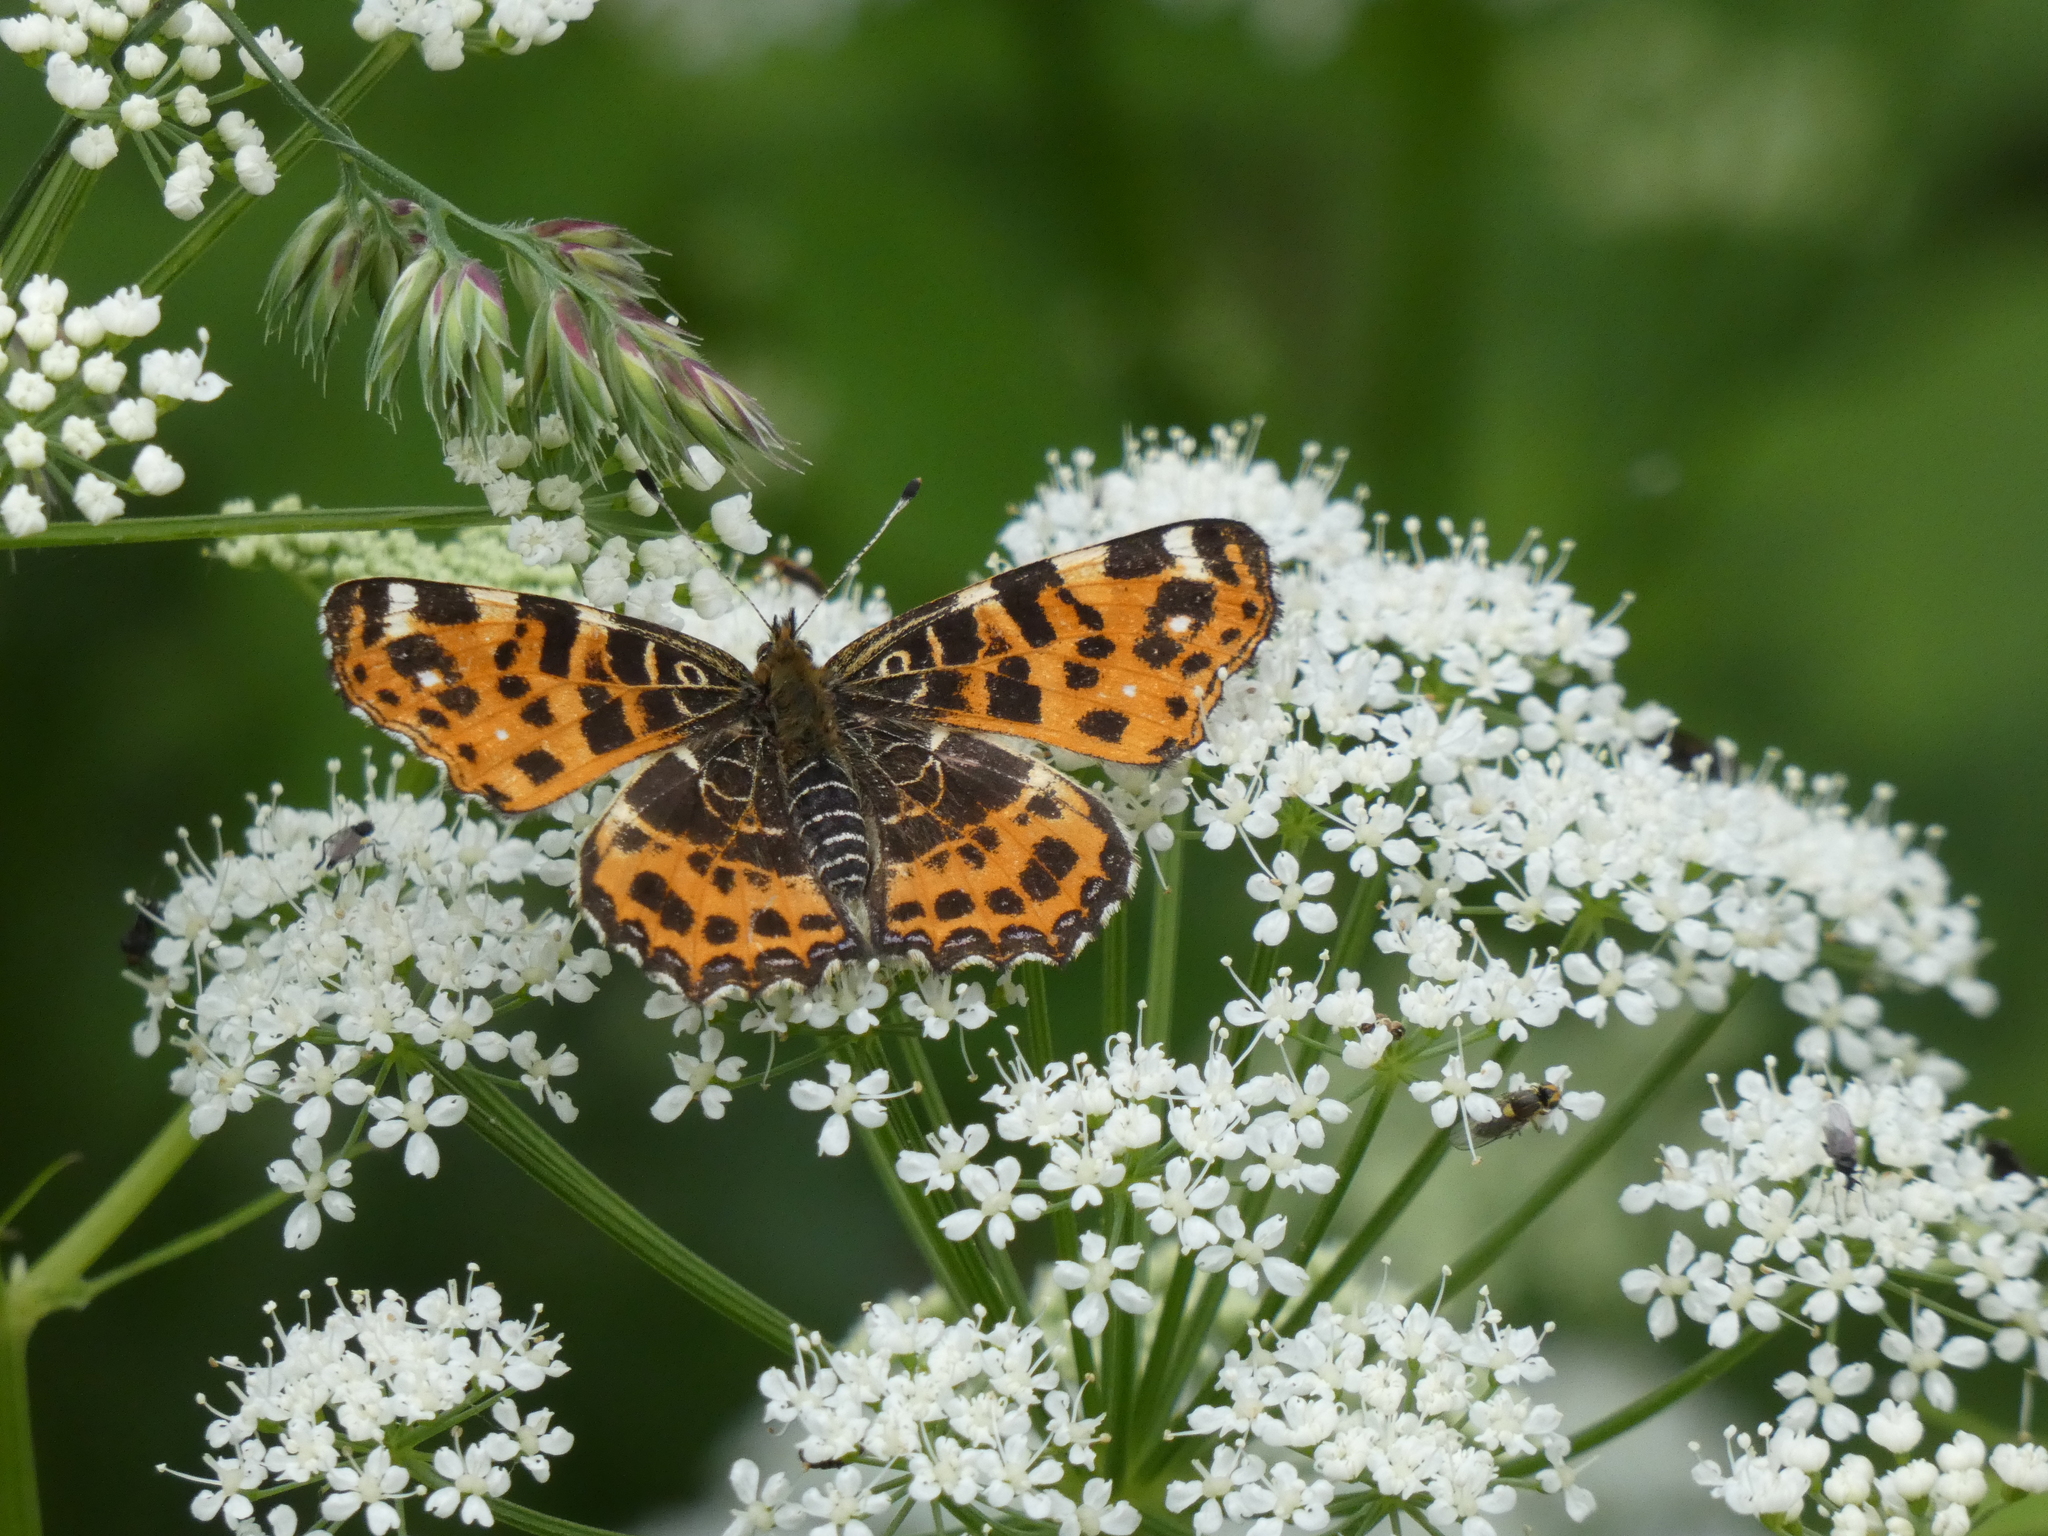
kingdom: Animalia
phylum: Arthropoda
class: Insecta
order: Lepidoptera
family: Nymphalidae
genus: Araschnia
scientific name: Araschnia levana
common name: Map butterfly
